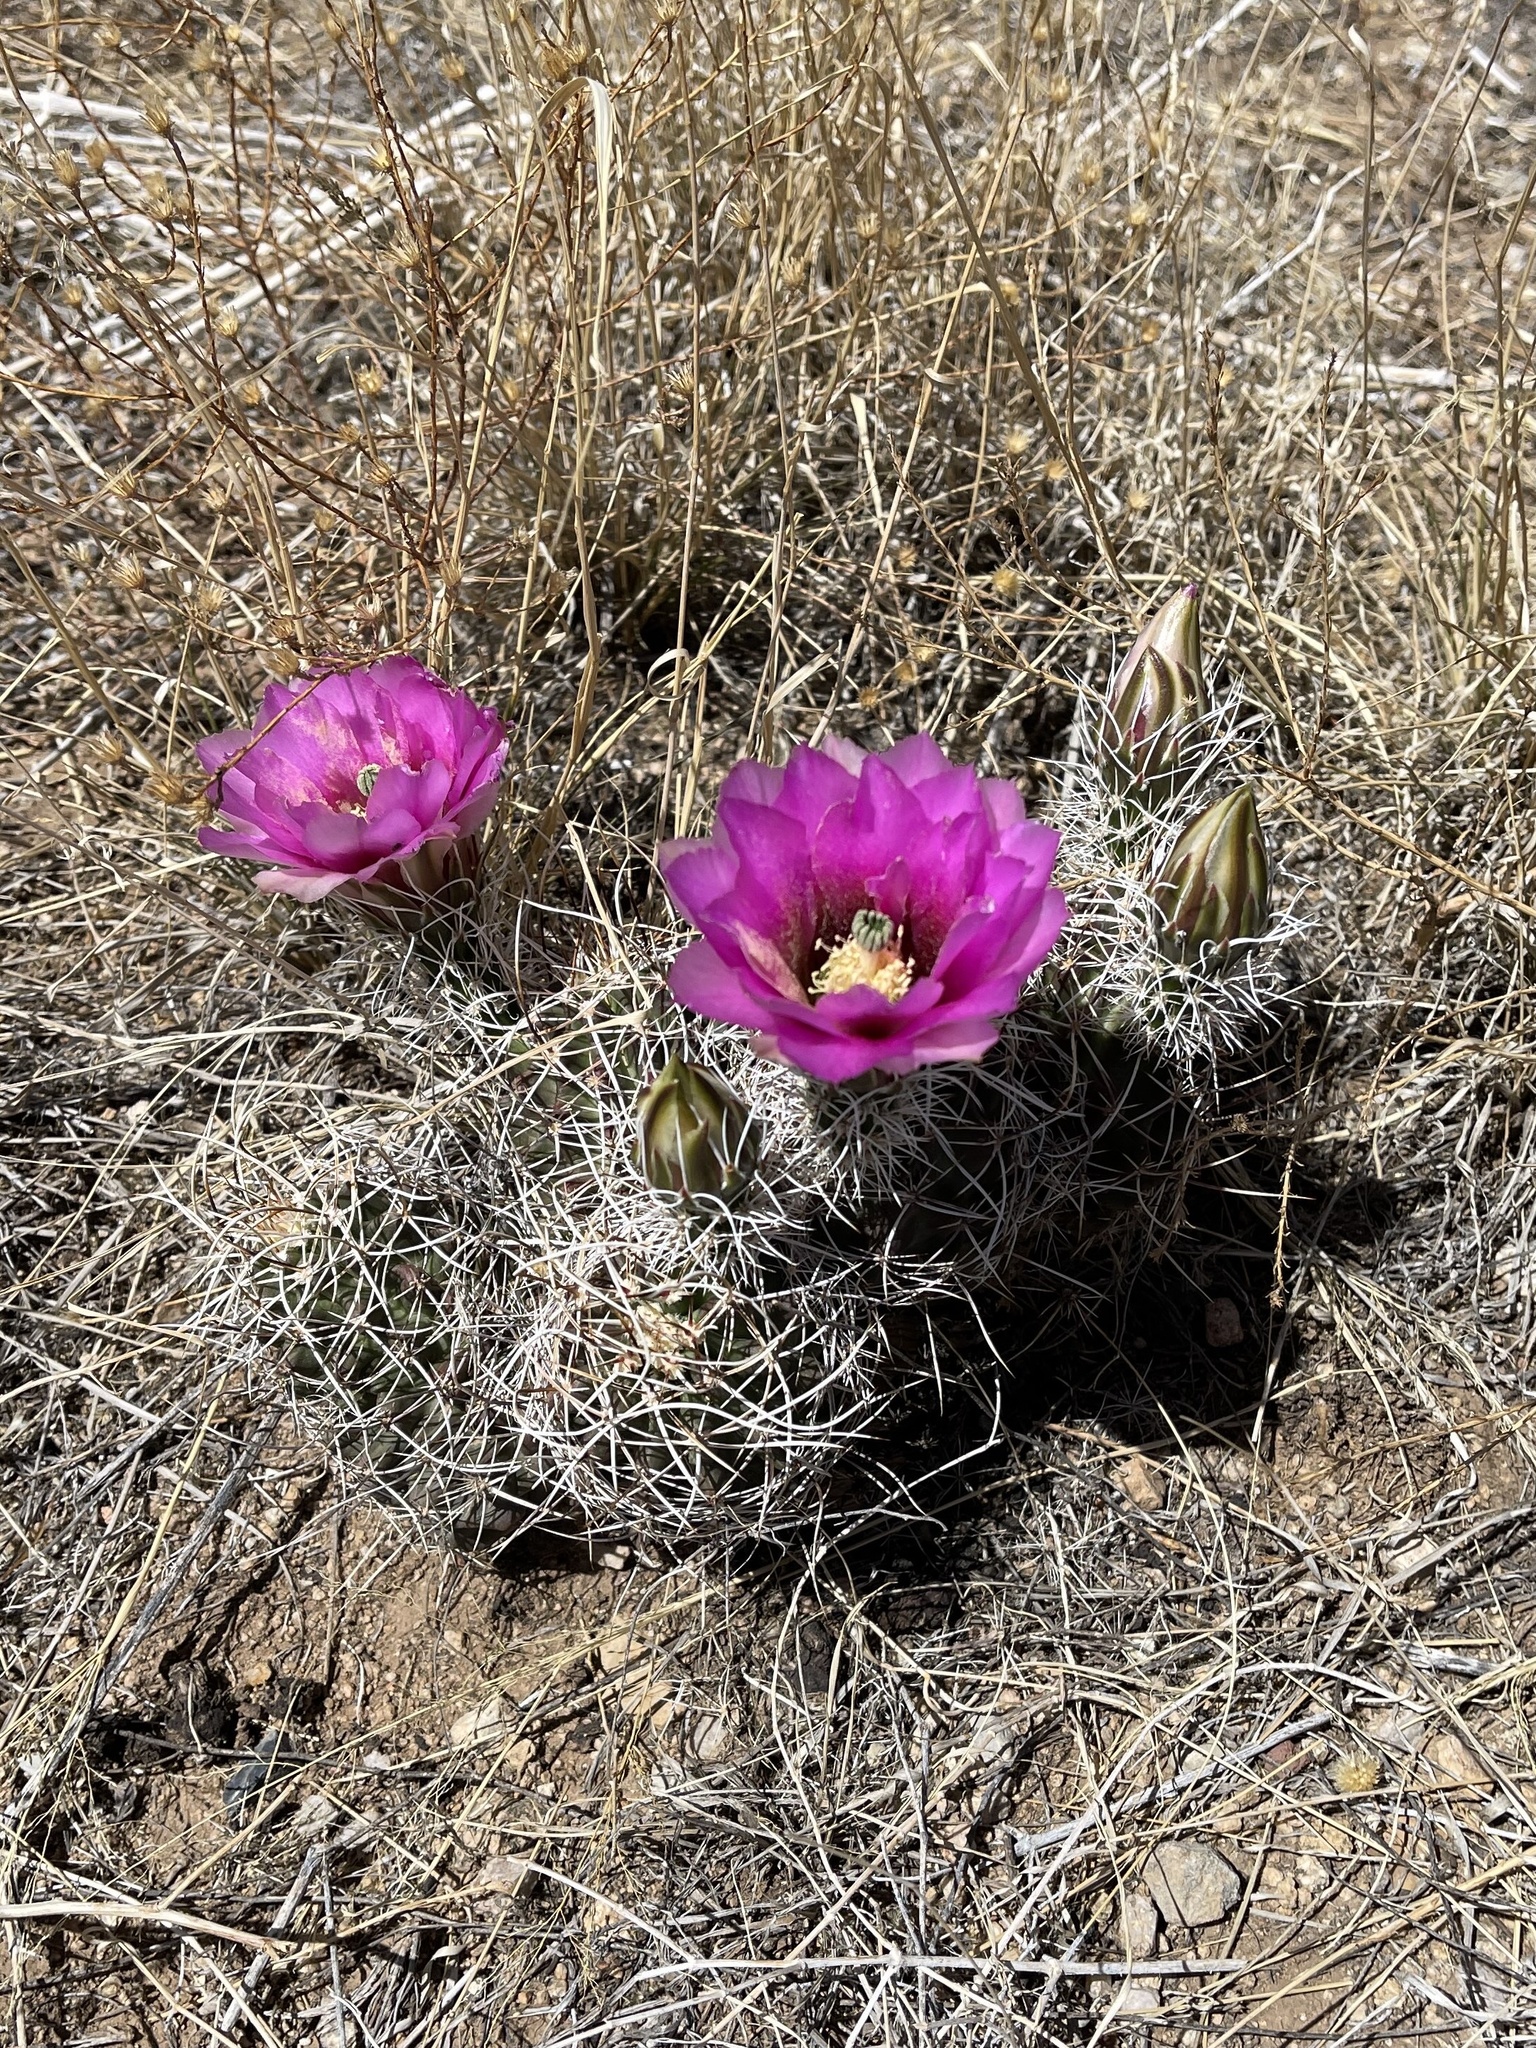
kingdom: Plantae
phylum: Tracheophyta
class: Magnoliopsida
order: Caryophyllales
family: Cactaceae
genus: Echinocereus
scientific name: Echinocereus fendleri
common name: Fendler's hedgehog cactus
